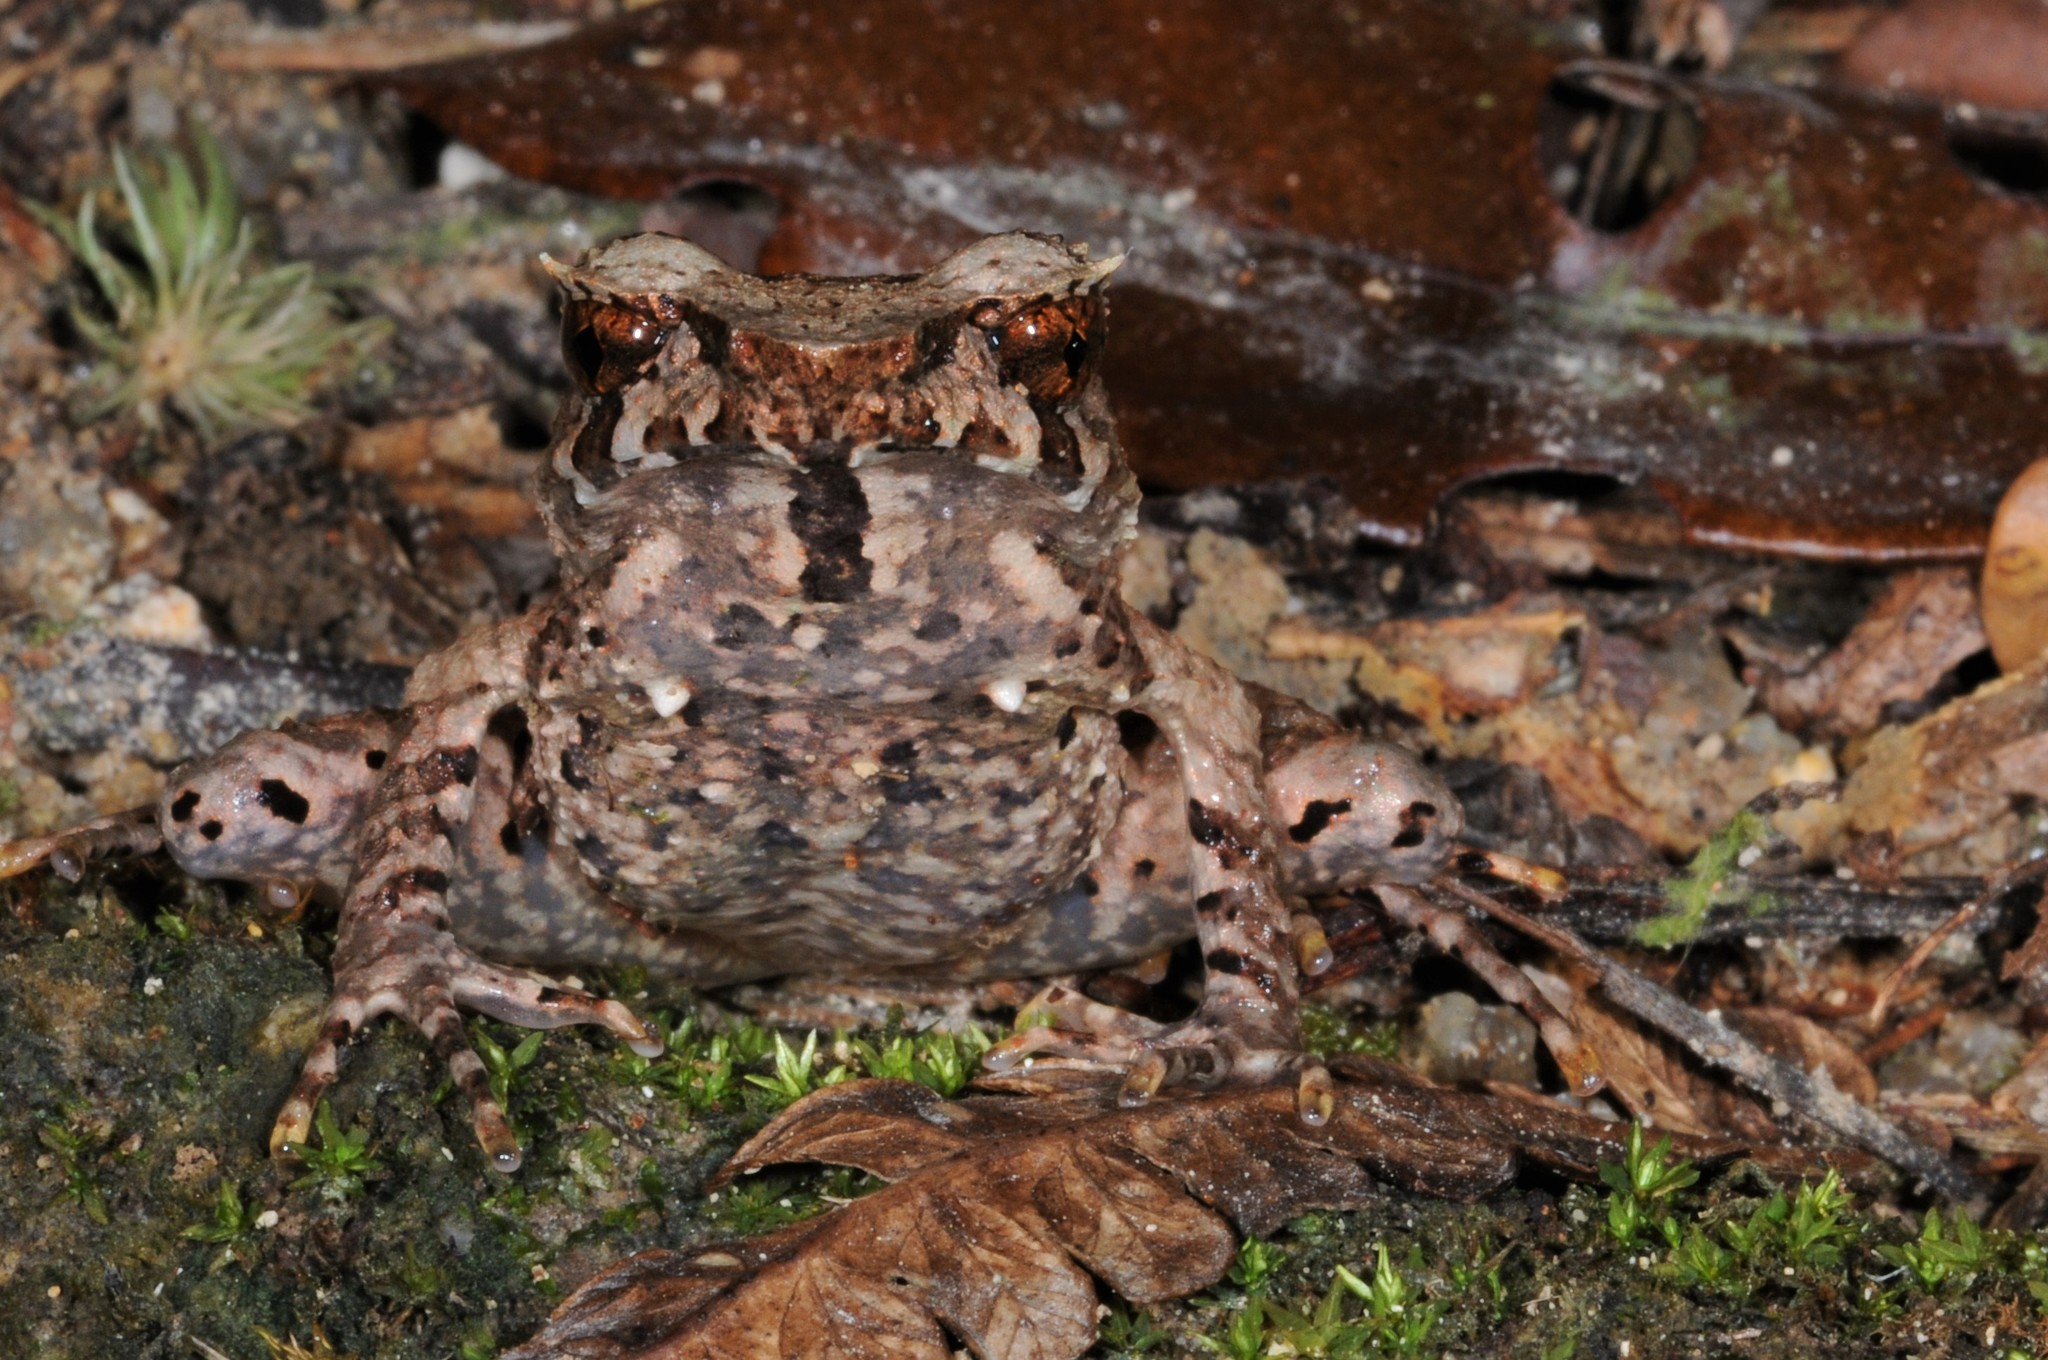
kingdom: Animalia
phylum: Chordata
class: Amphibia
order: Anura
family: Megophryidae
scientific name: Megophryidae
